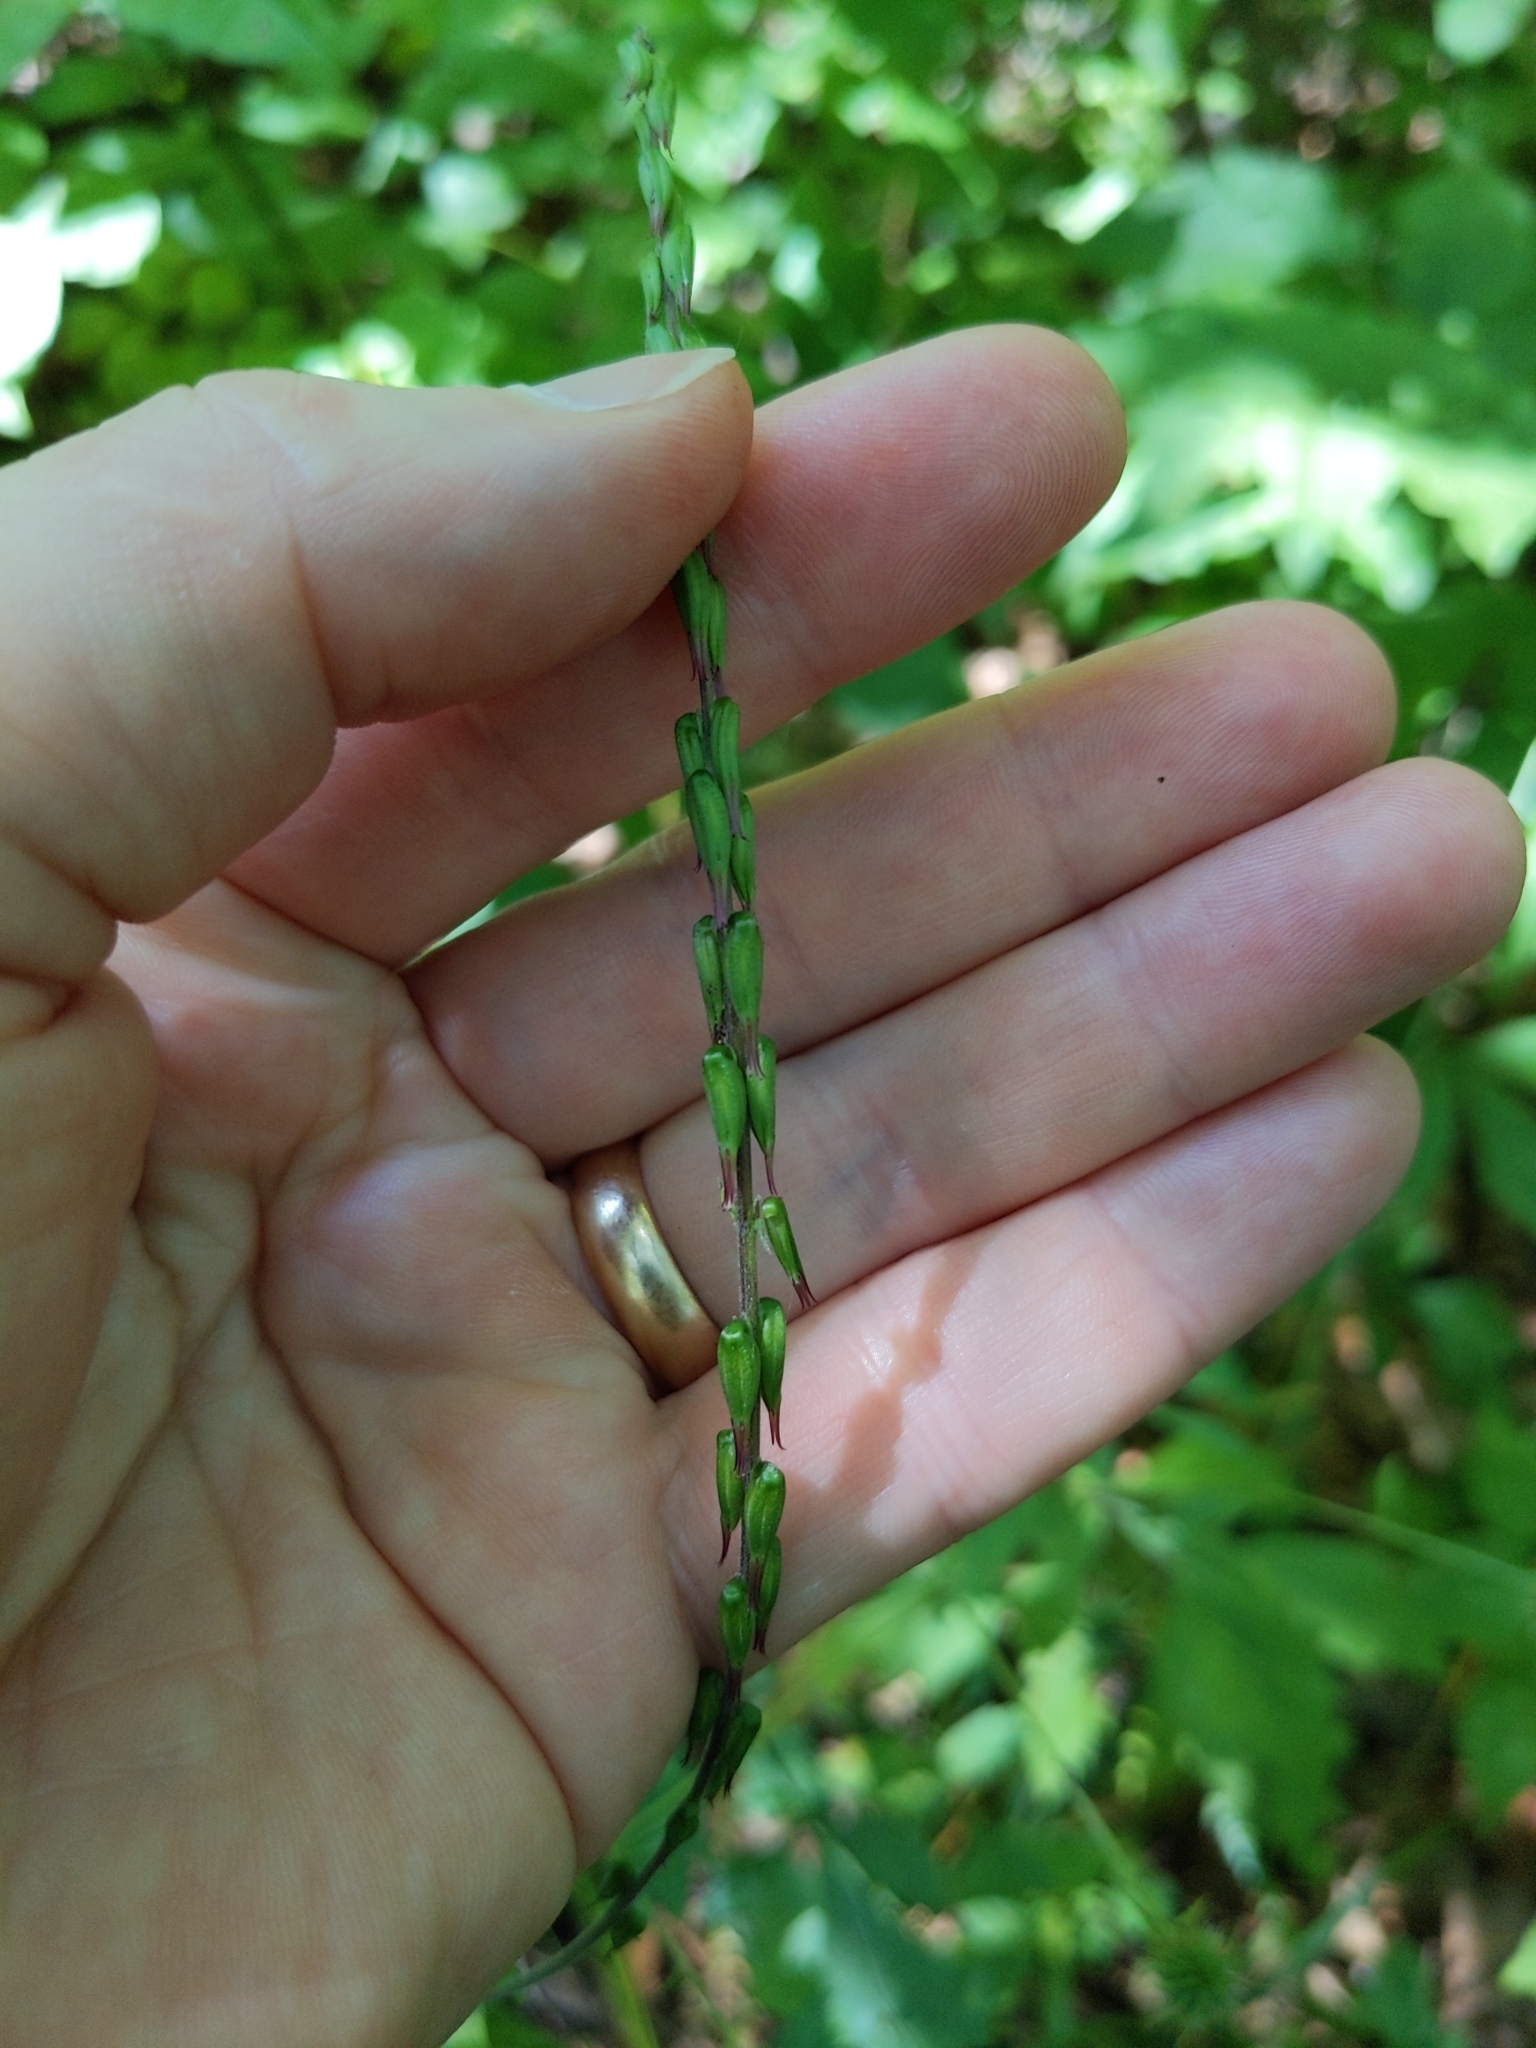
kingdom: Plantae
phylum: Tracheophyta
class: Magnoliopsida
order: Lamiales
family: Phrymaceae
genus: Phryma
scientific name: Phryma leptostachya
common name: American lopseed
